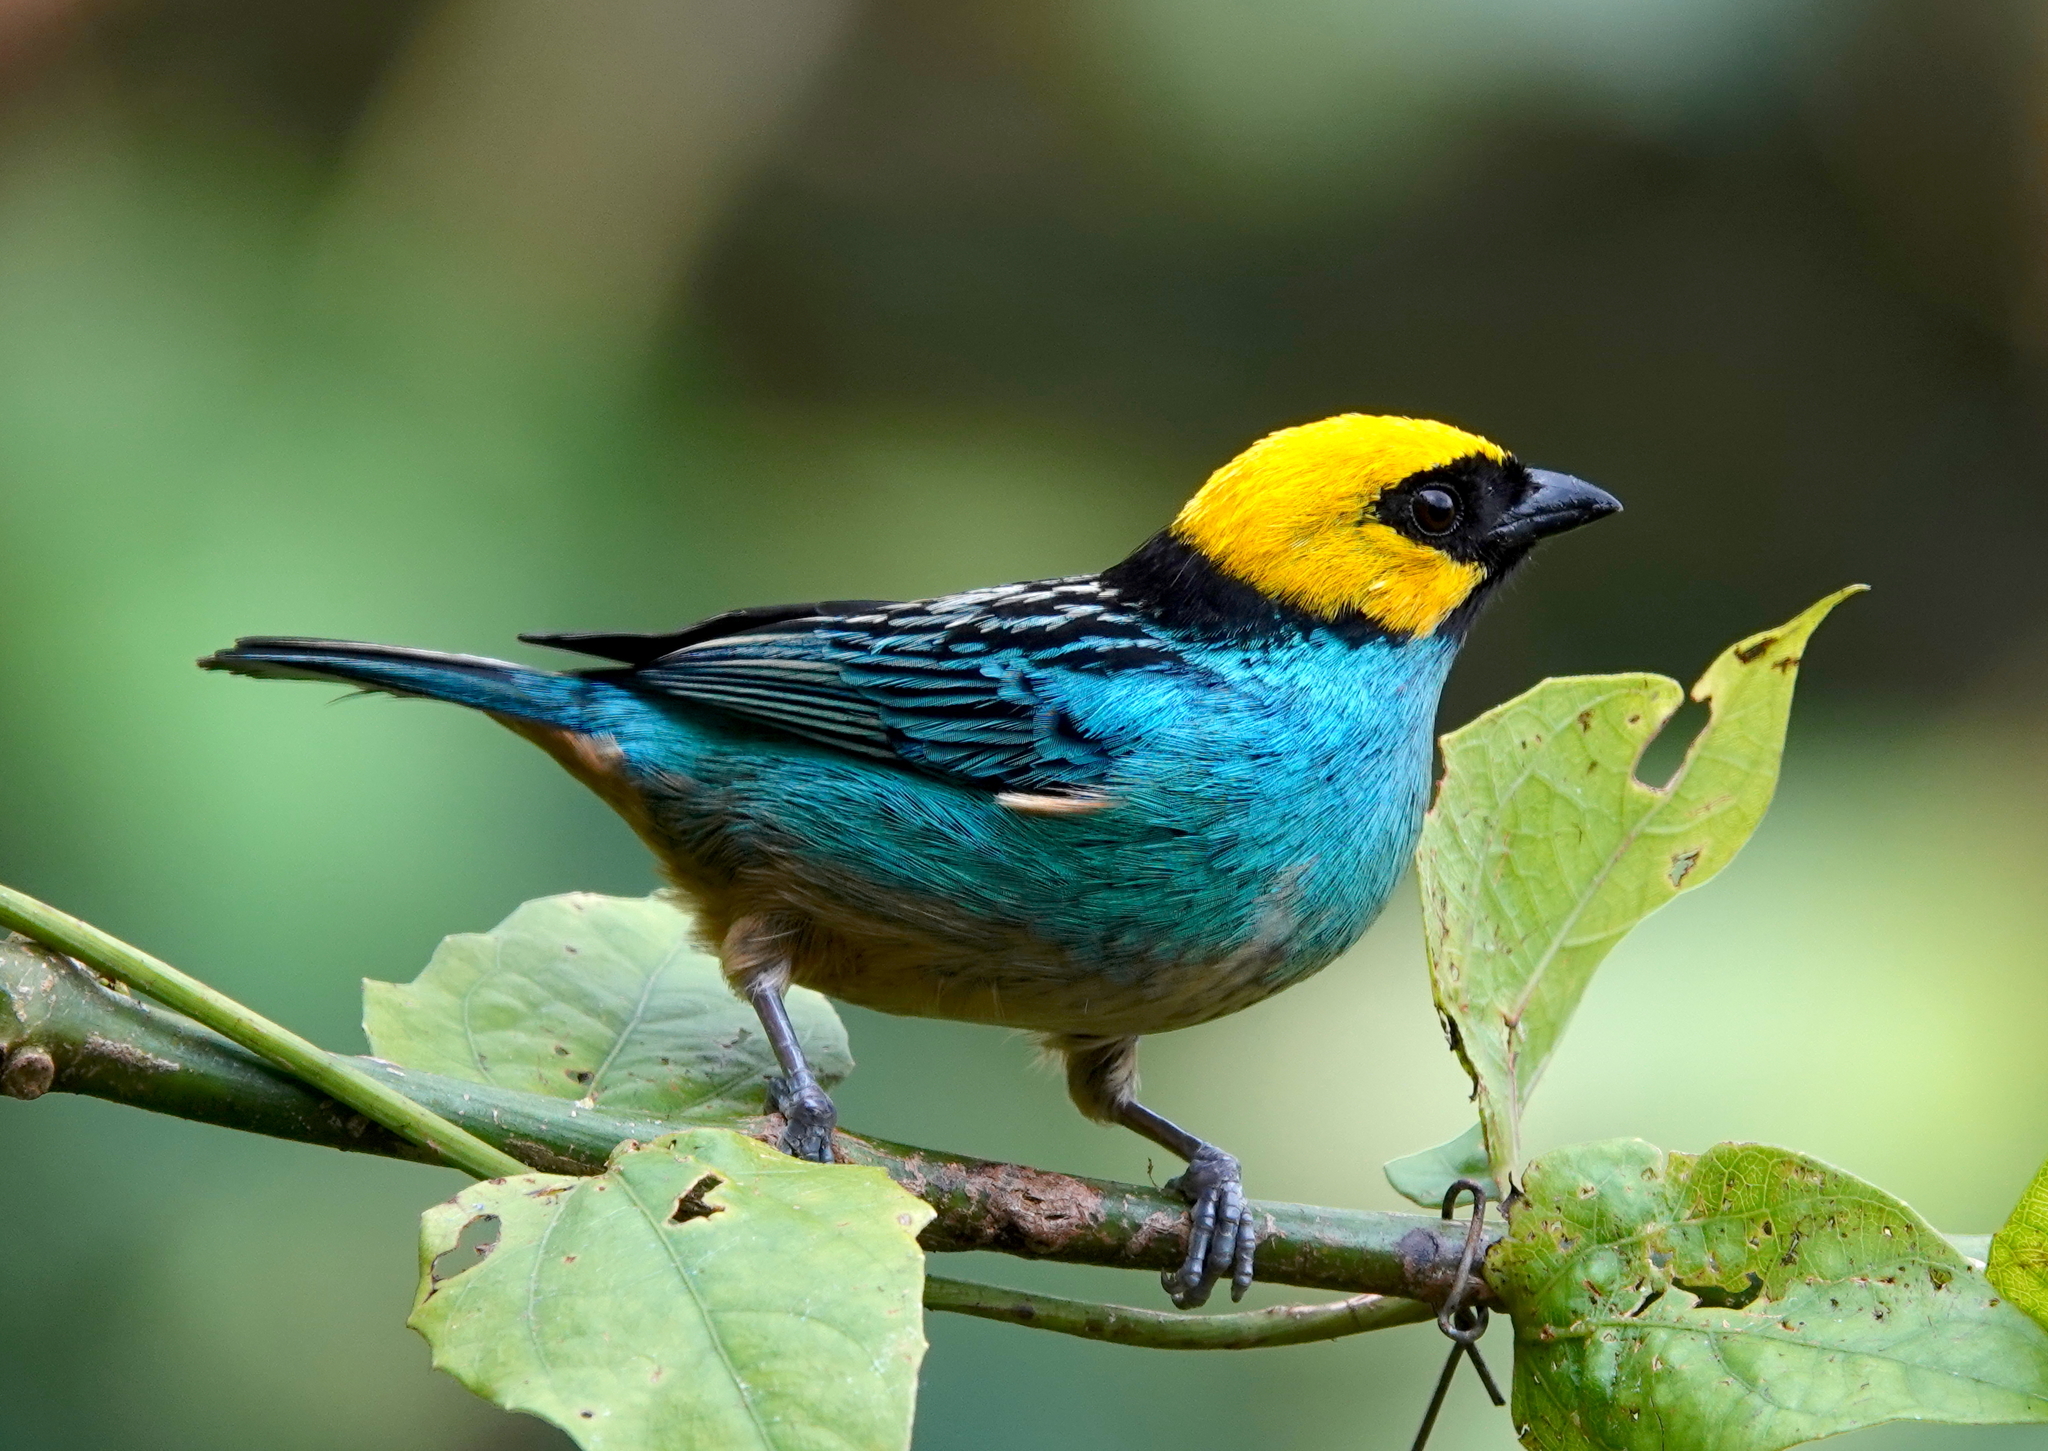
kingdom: Animalia
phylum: Chordata
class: Aves
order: Passeriformes
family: Thraupidae
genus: Tangara
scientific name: Tangara xanthocephala
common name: Saffron-crowned tanager
